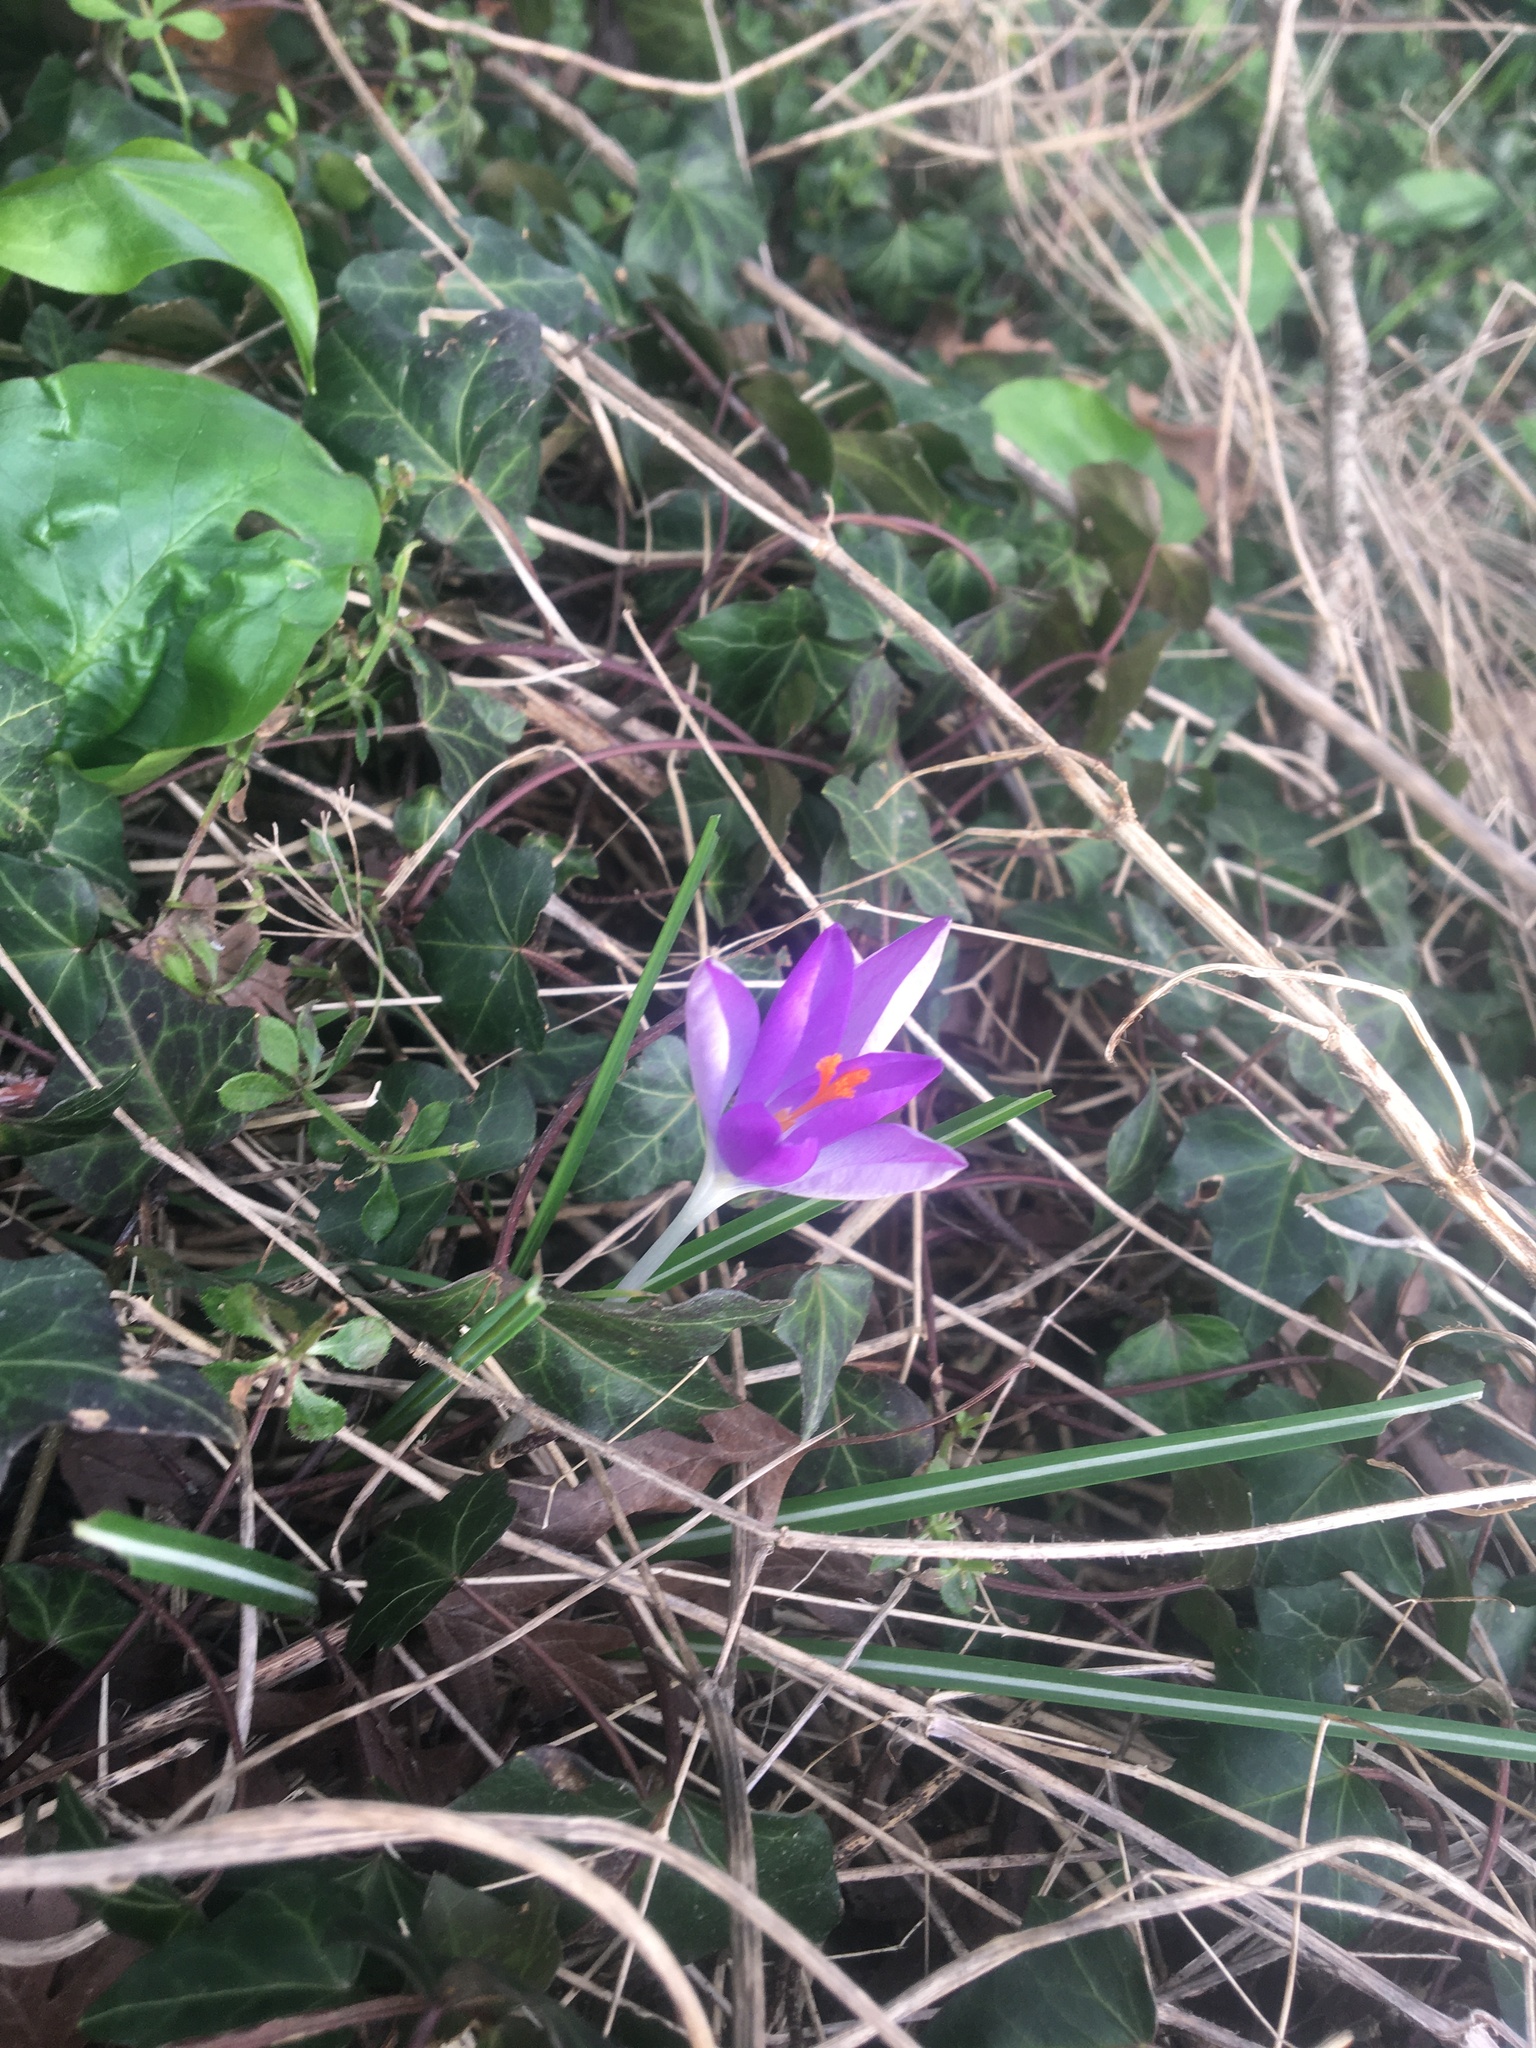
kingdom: Plantae
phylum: Tracheophyta
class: Liliopsida
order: Asparagales
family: Iridaceae
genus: Crocus
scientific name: Crocus tommasinianus
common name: Early crocus
